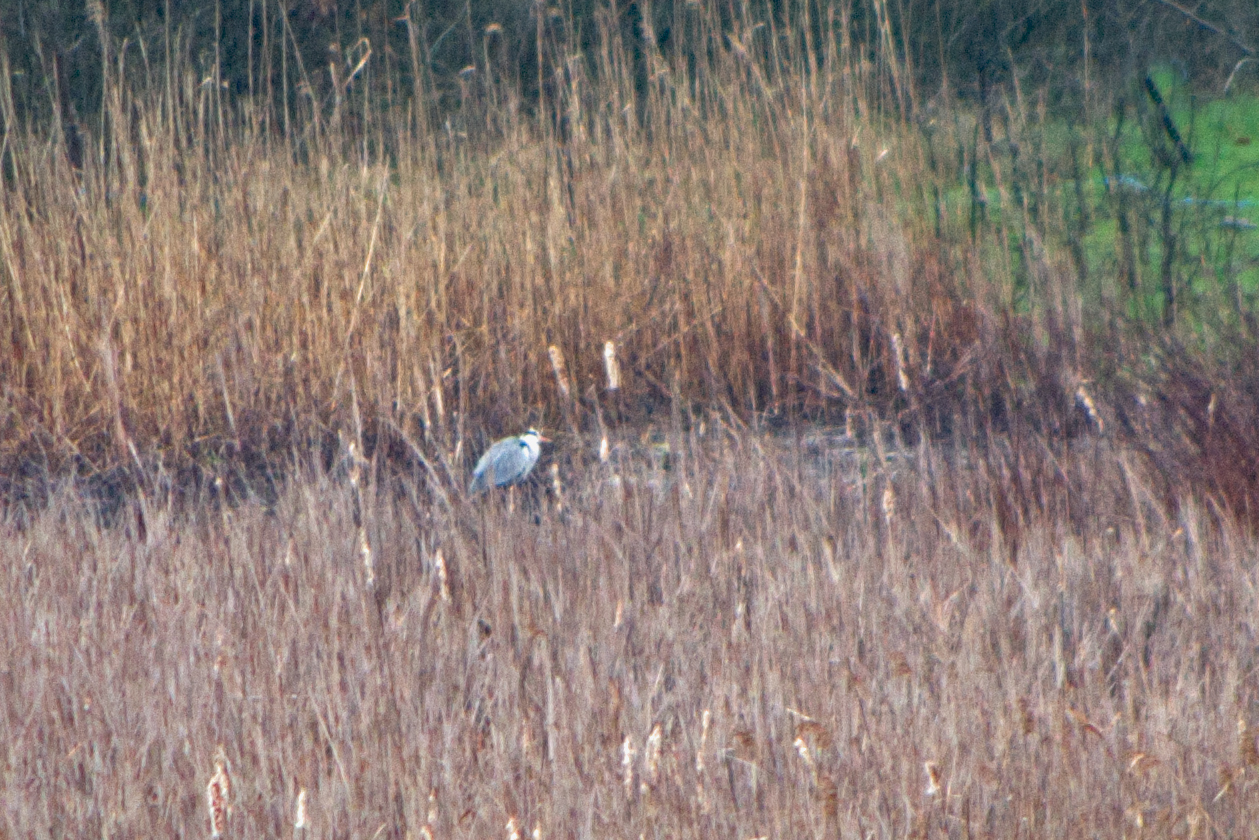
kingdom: Animalia
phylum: Chordata
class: Aves
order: Pelecaniformes
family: Ardeidae
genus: Ardea
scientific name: Ardea cinerea
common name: Grey heron
